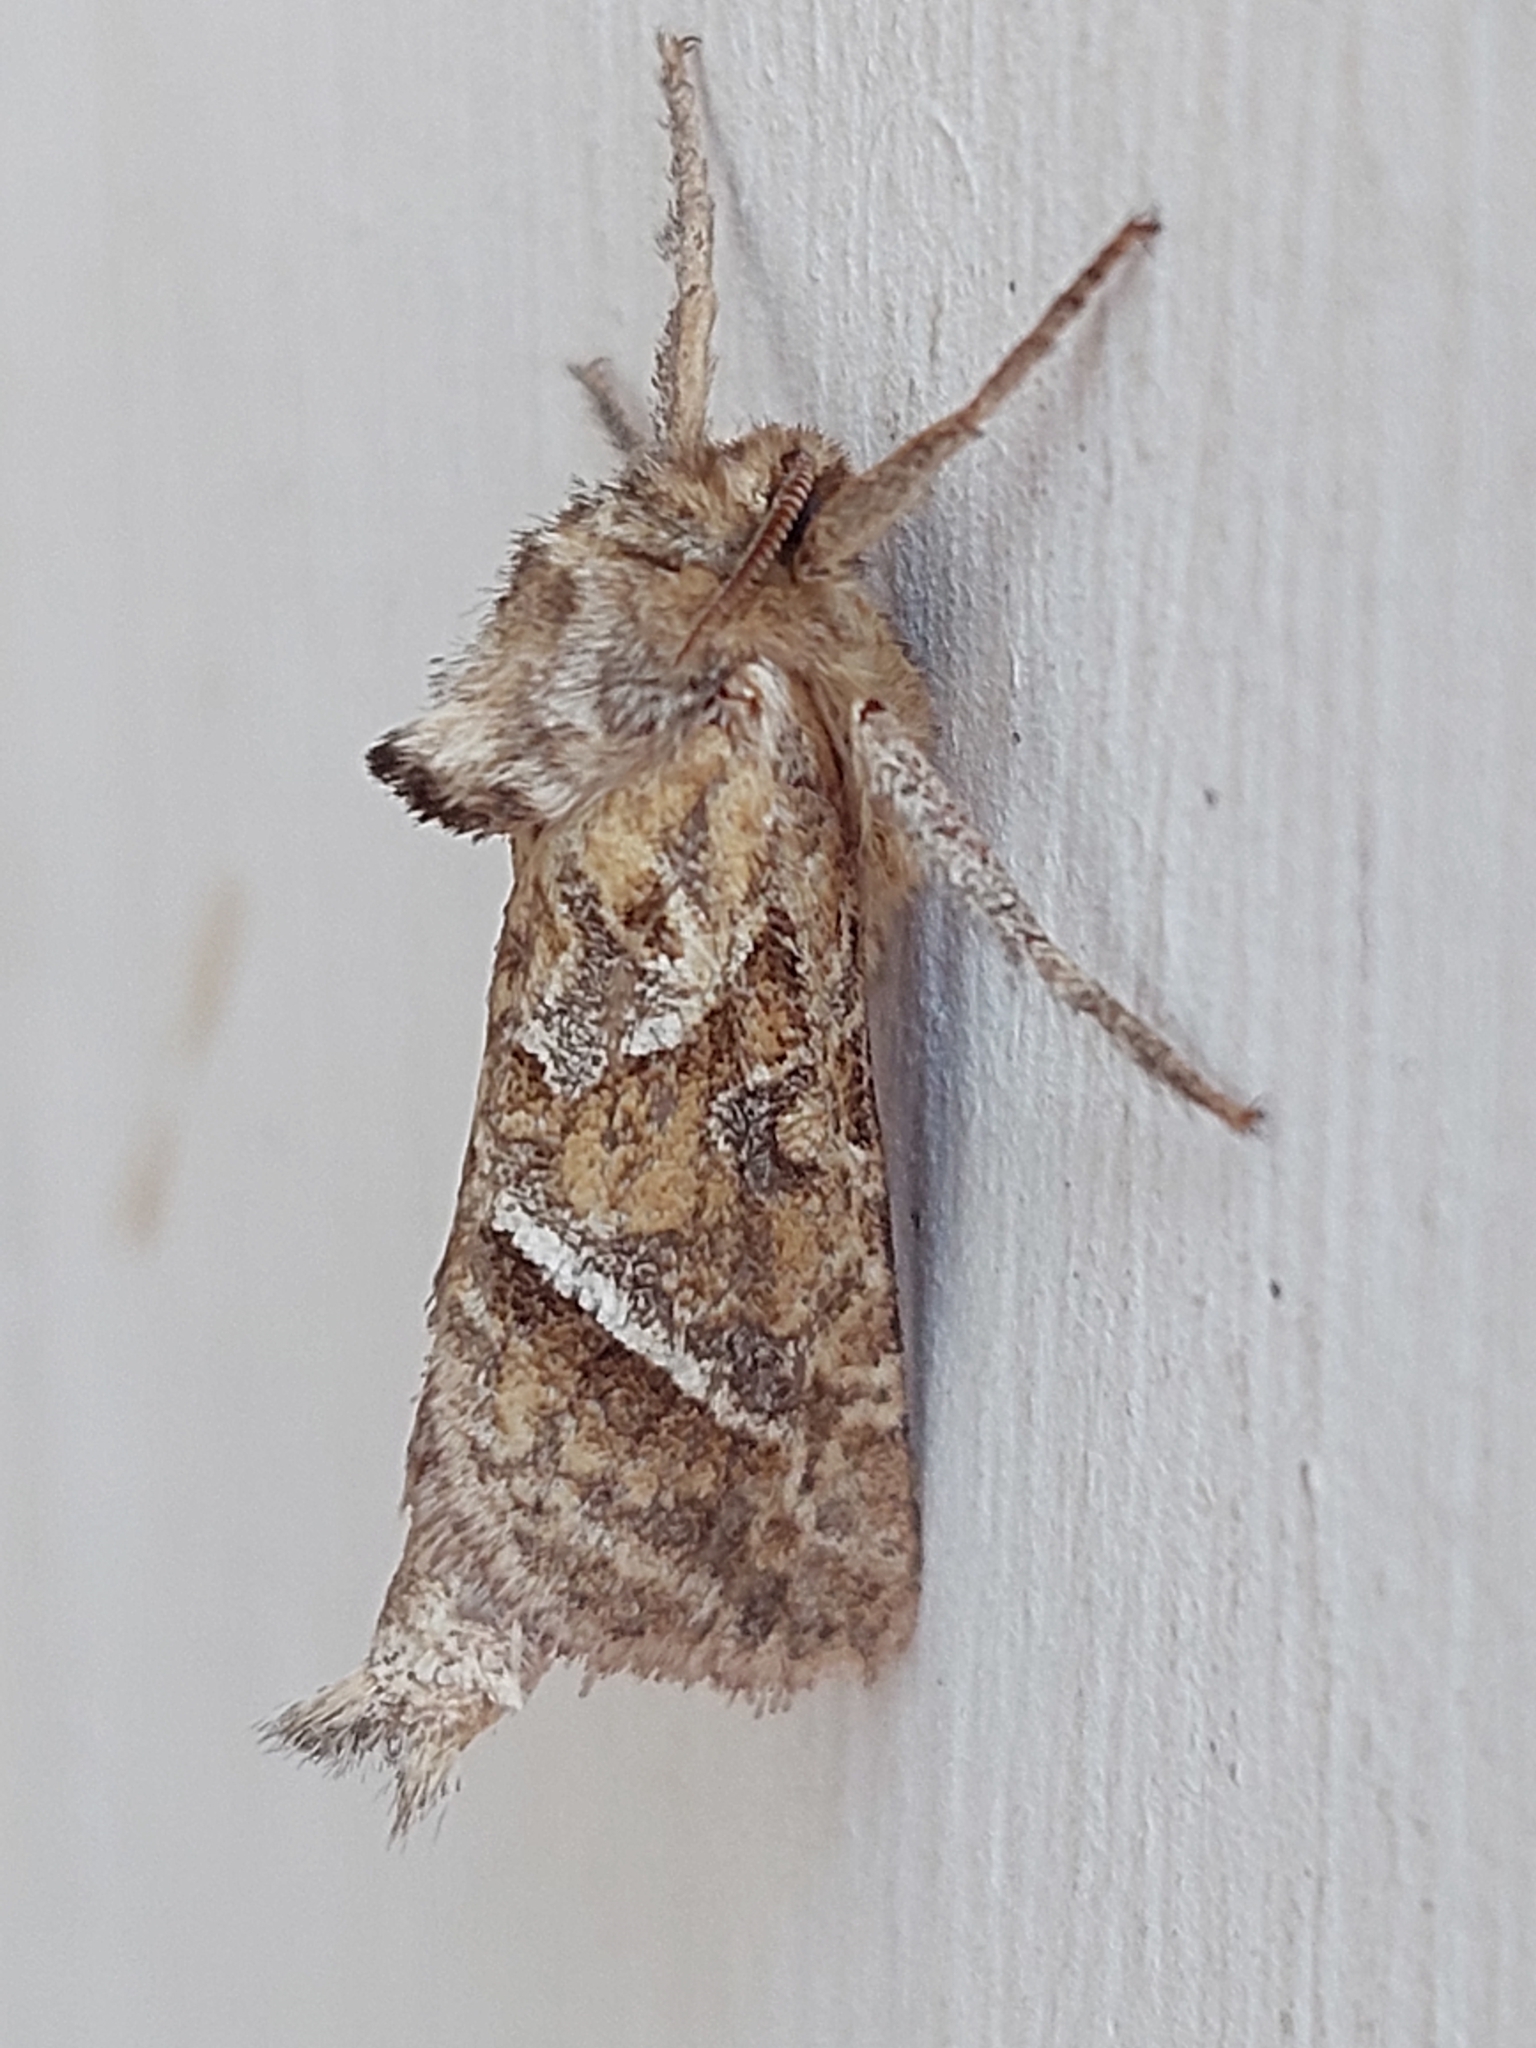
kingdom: Animalia
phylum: Arthropoda
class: Insecta
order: Lepidoptera
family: Hepialidae
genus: Triodia
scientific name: Triodia amasinus
